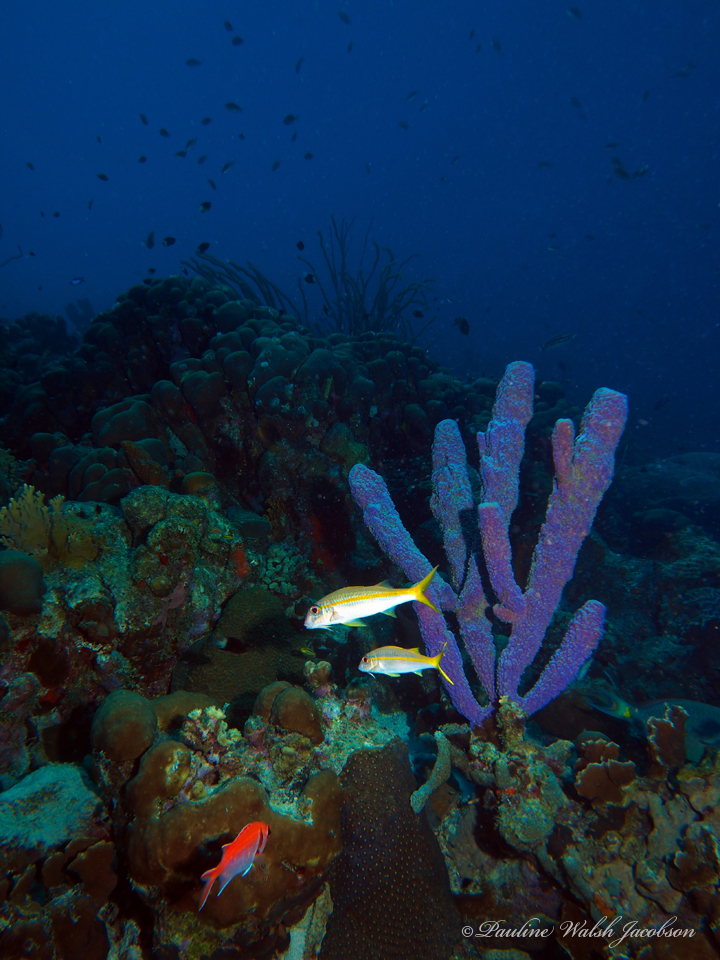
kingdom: Animalia
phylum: Chordata
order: Perciformes
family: Mullidae
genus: Mulloidichthys
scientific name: Mulloidichthys martinicus
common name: Yellow goatfish
